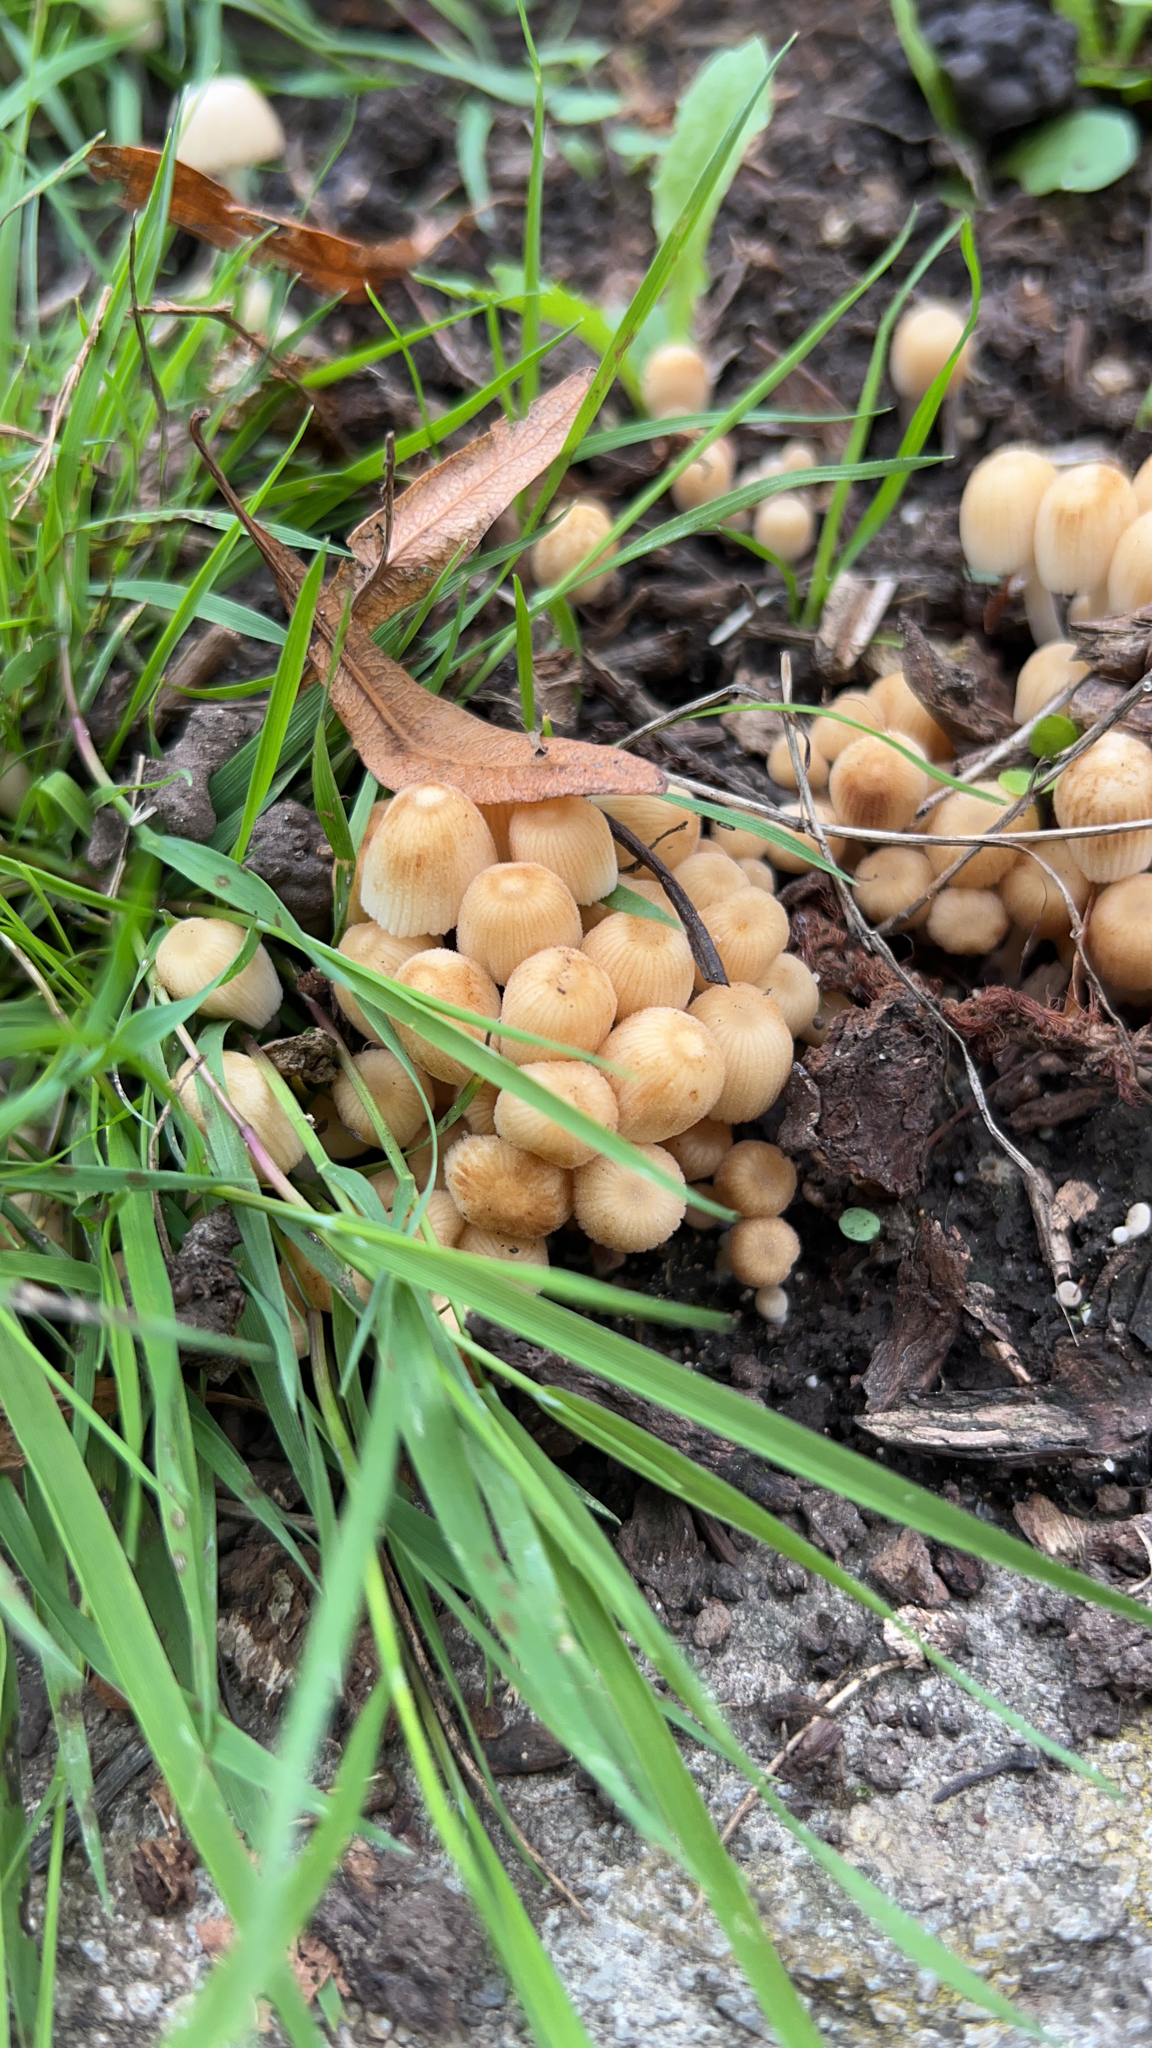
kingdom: Fungi
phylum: Basidiomycota
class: Agaricomycetes
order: Agaricales
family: Psathyrellaceae
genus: Coprinellus
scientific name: Coprinellus micaceus
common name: Glistening ink-cap
